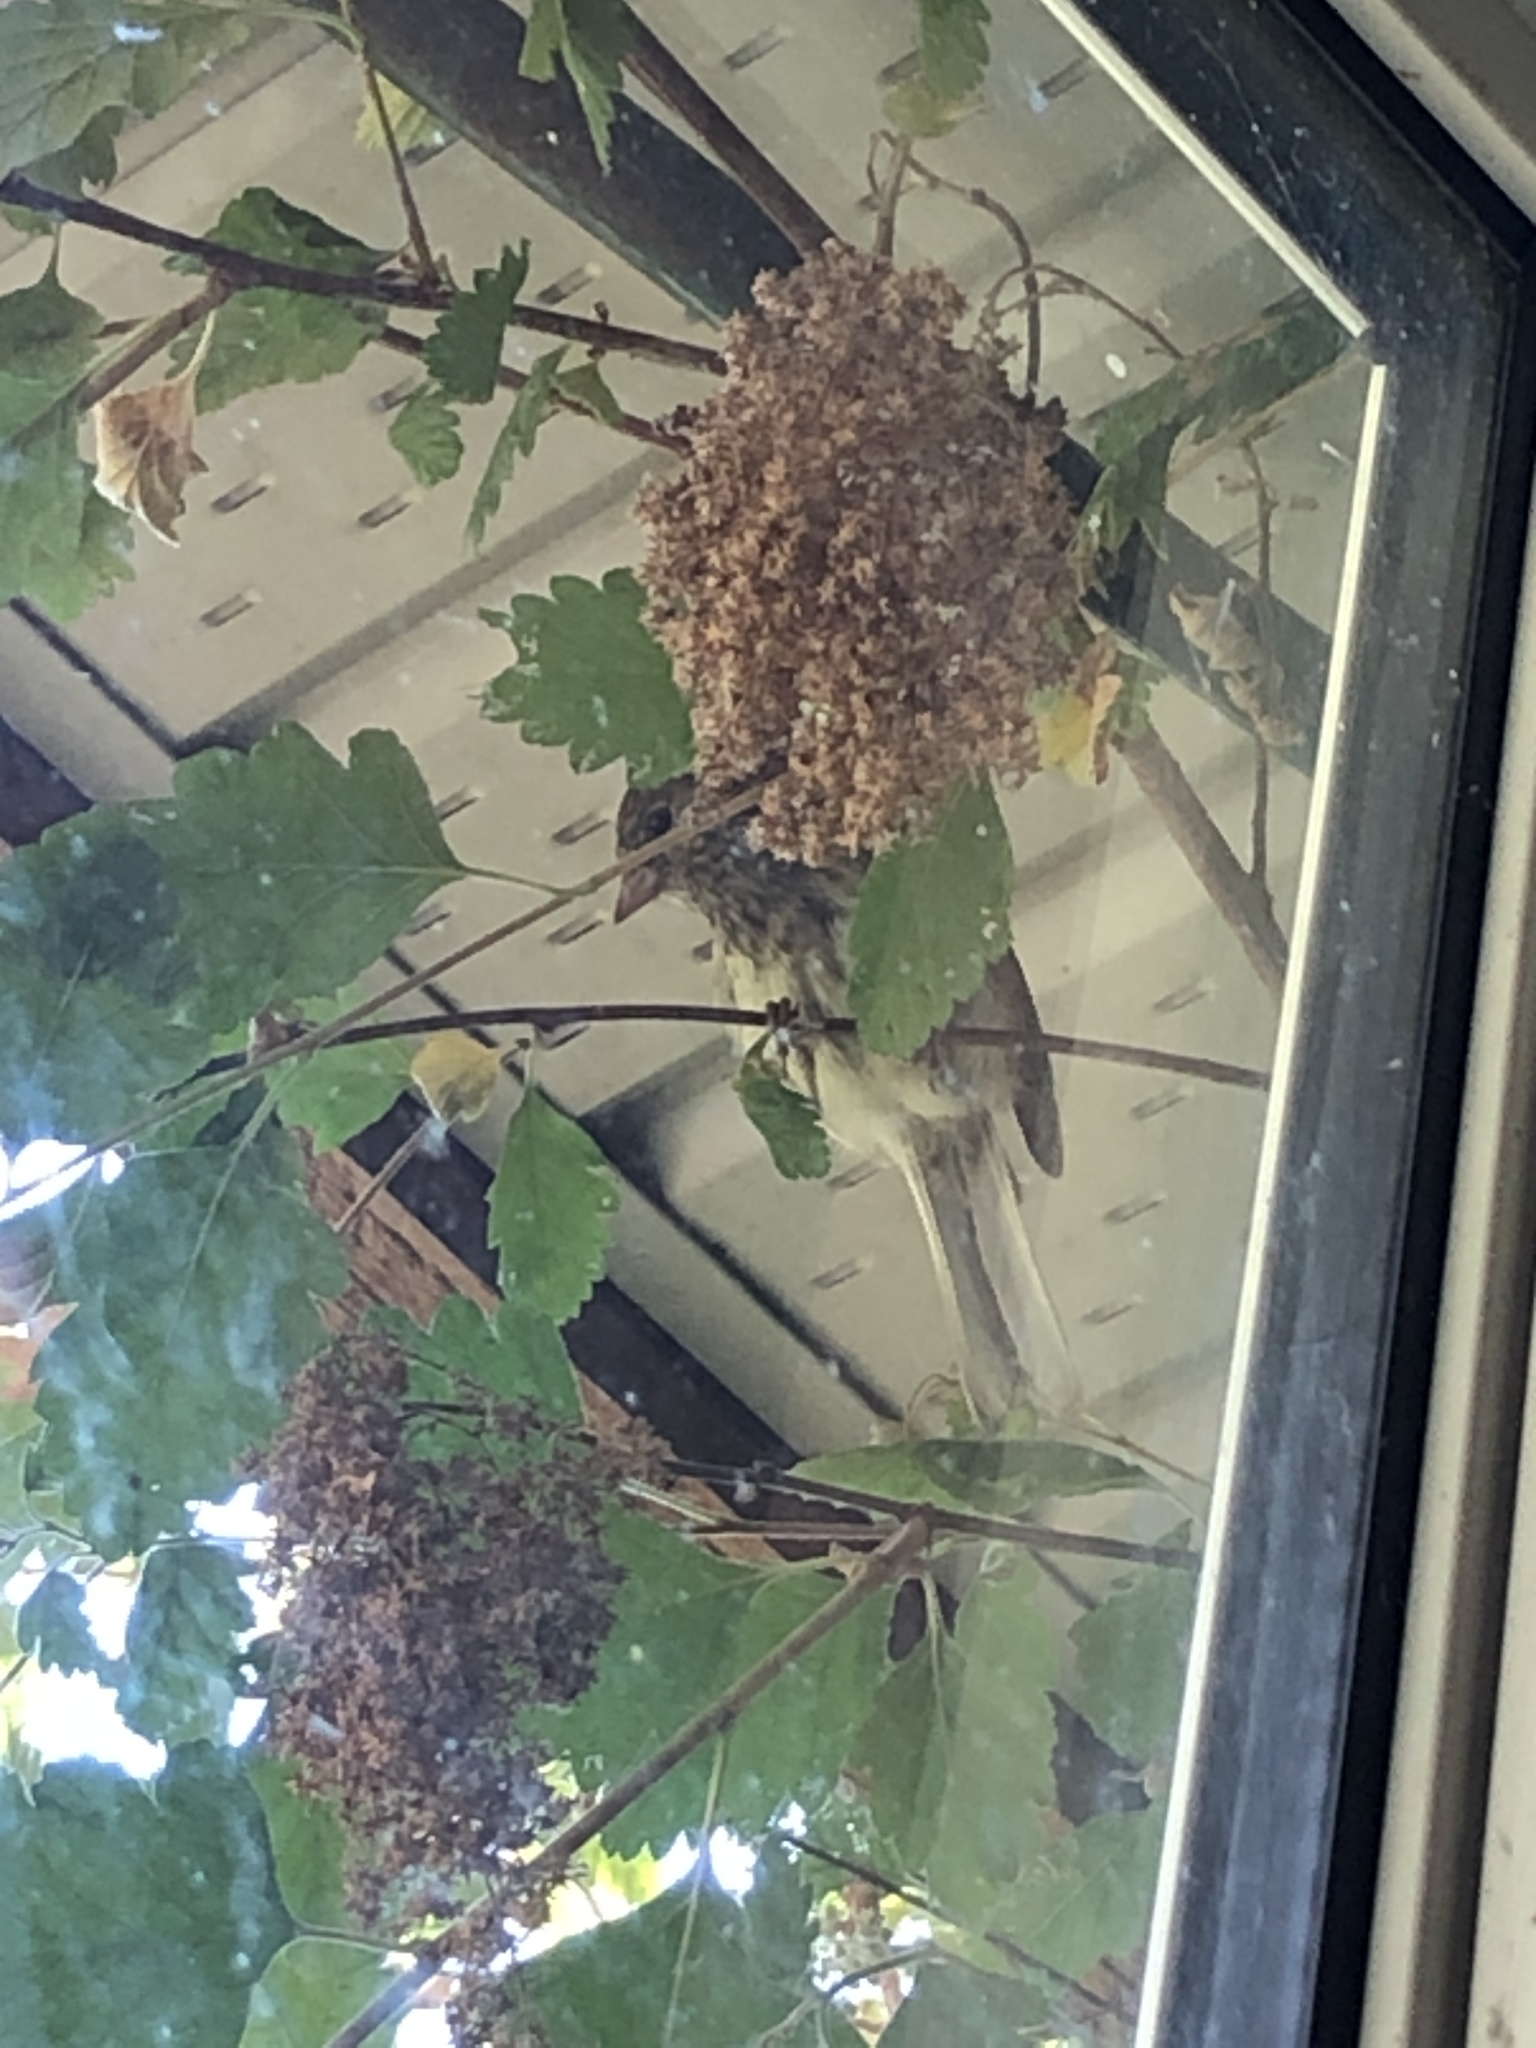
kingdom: Animalia
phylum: Chordata
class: Aves
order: Passeriformes
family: Passerellidae
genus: Junco
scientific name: Junco hyemalis
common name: Dark-eyed junco
